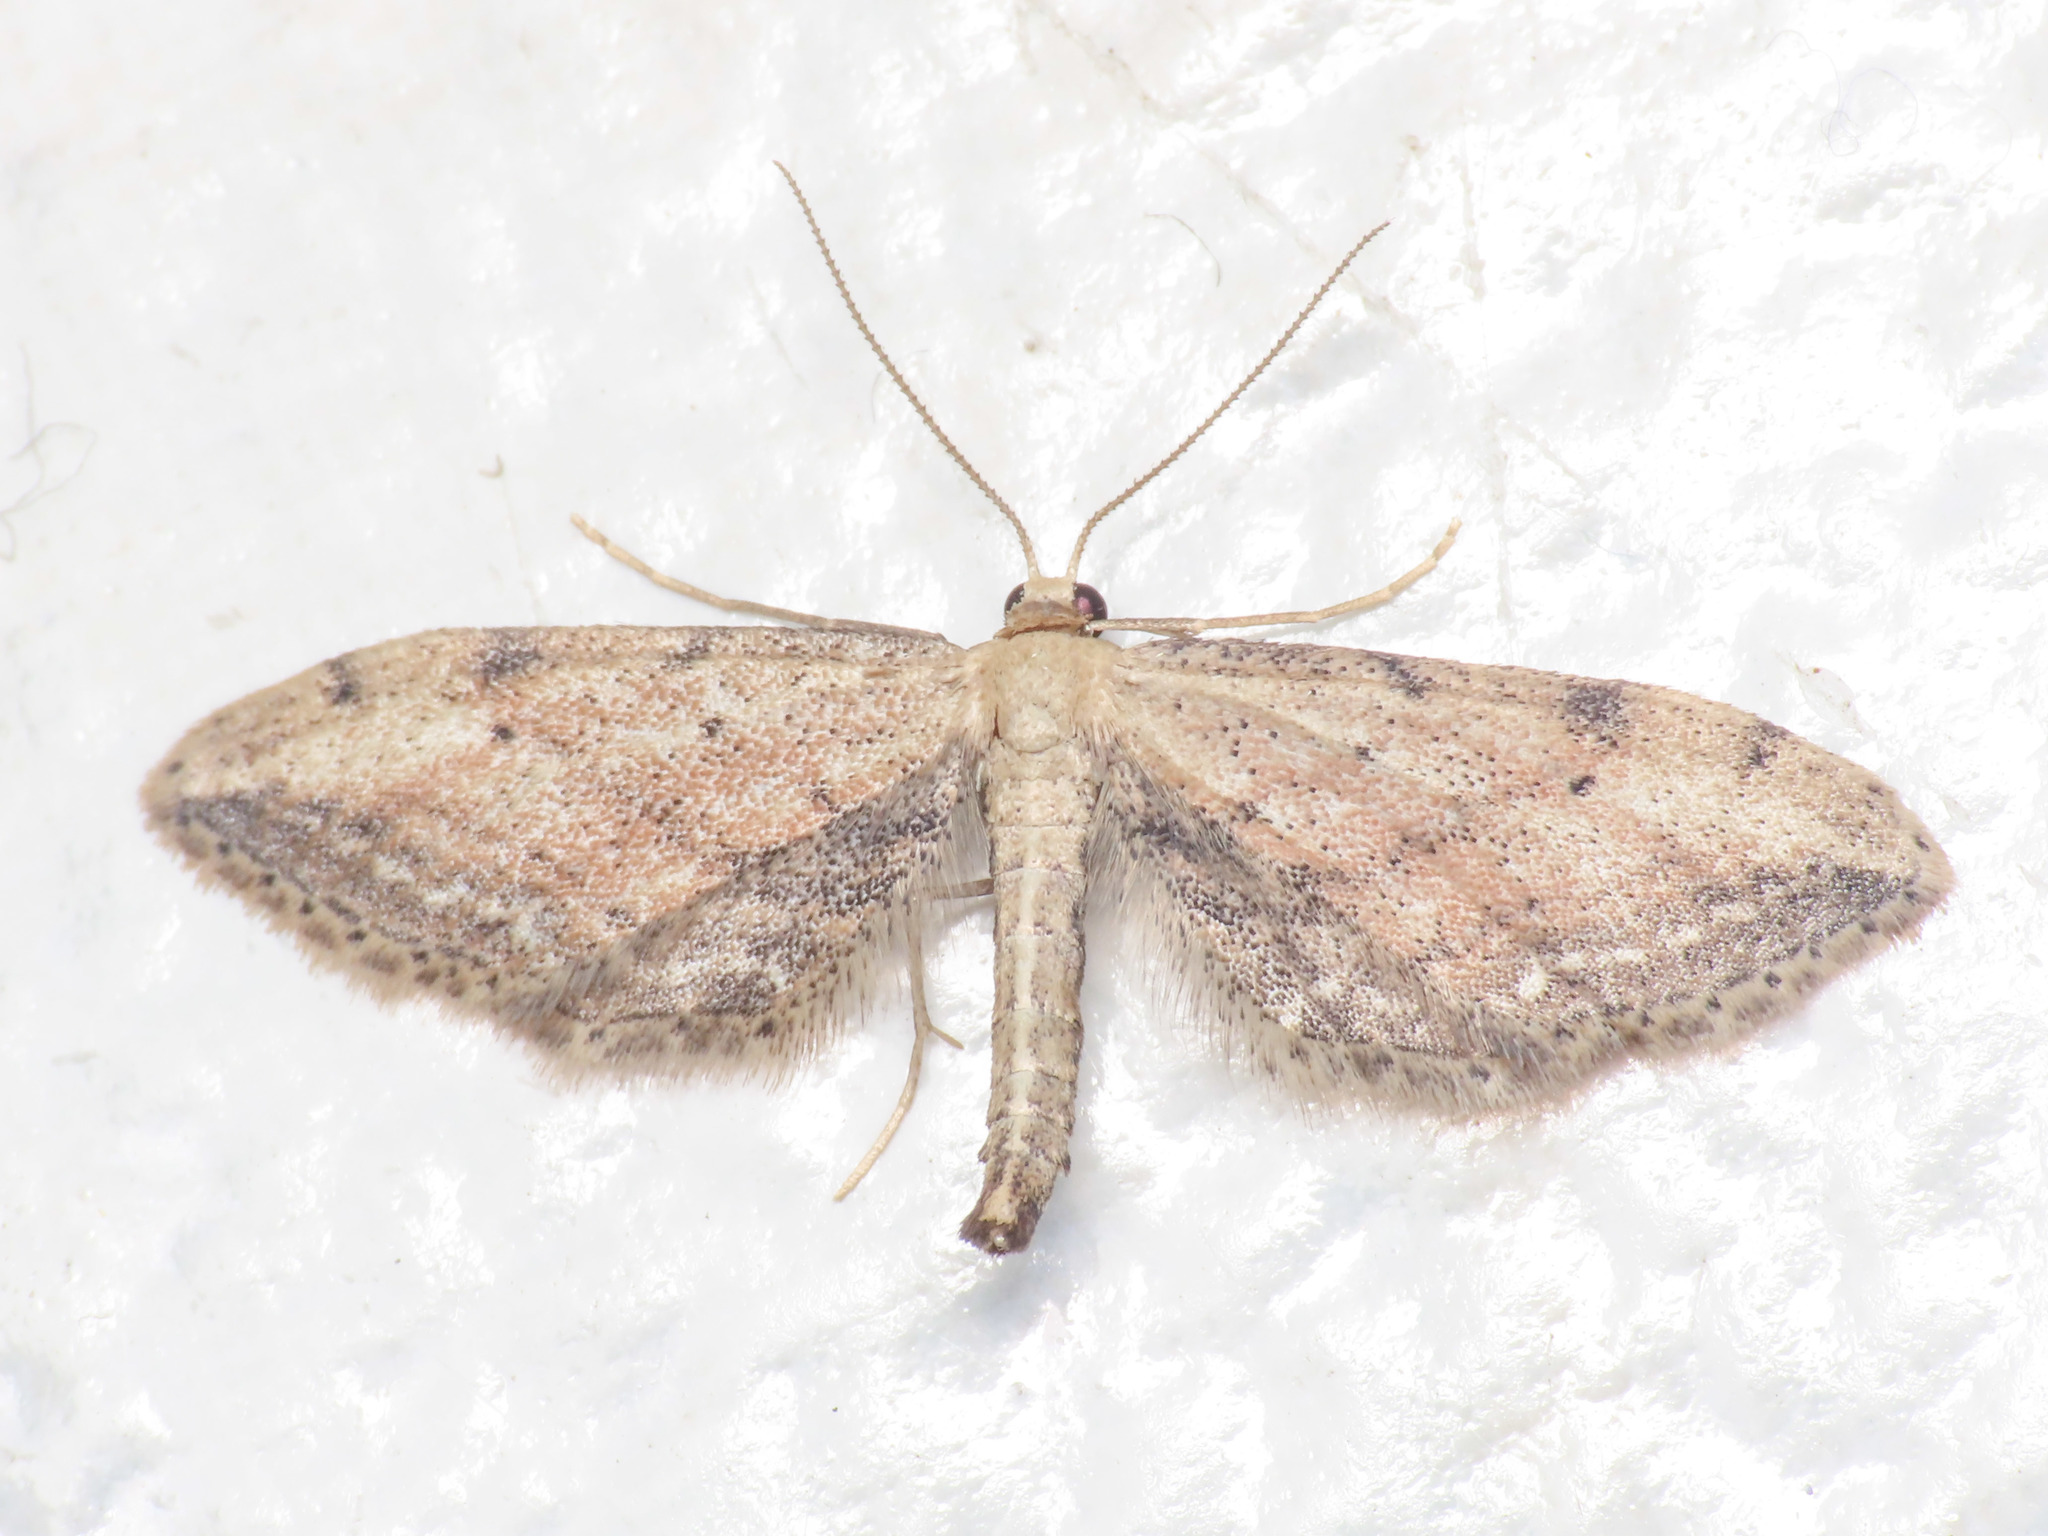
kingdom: Animalia
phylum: Arthropoda
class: Insecta
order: Lepidoptera
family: Geometridae
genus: Idaea
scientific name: Idaea attenuaria
